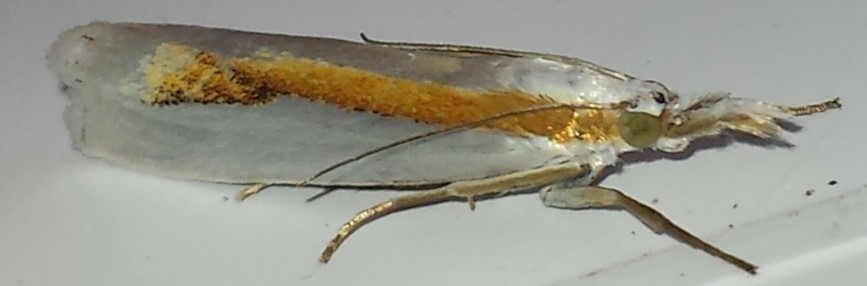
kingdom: Animalia
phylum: Arthropoda
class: Insecta
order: Lepidoptera
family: Crambidae
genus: Crambus
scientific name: Crambus girardellus
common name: Girard's grass-veneer
